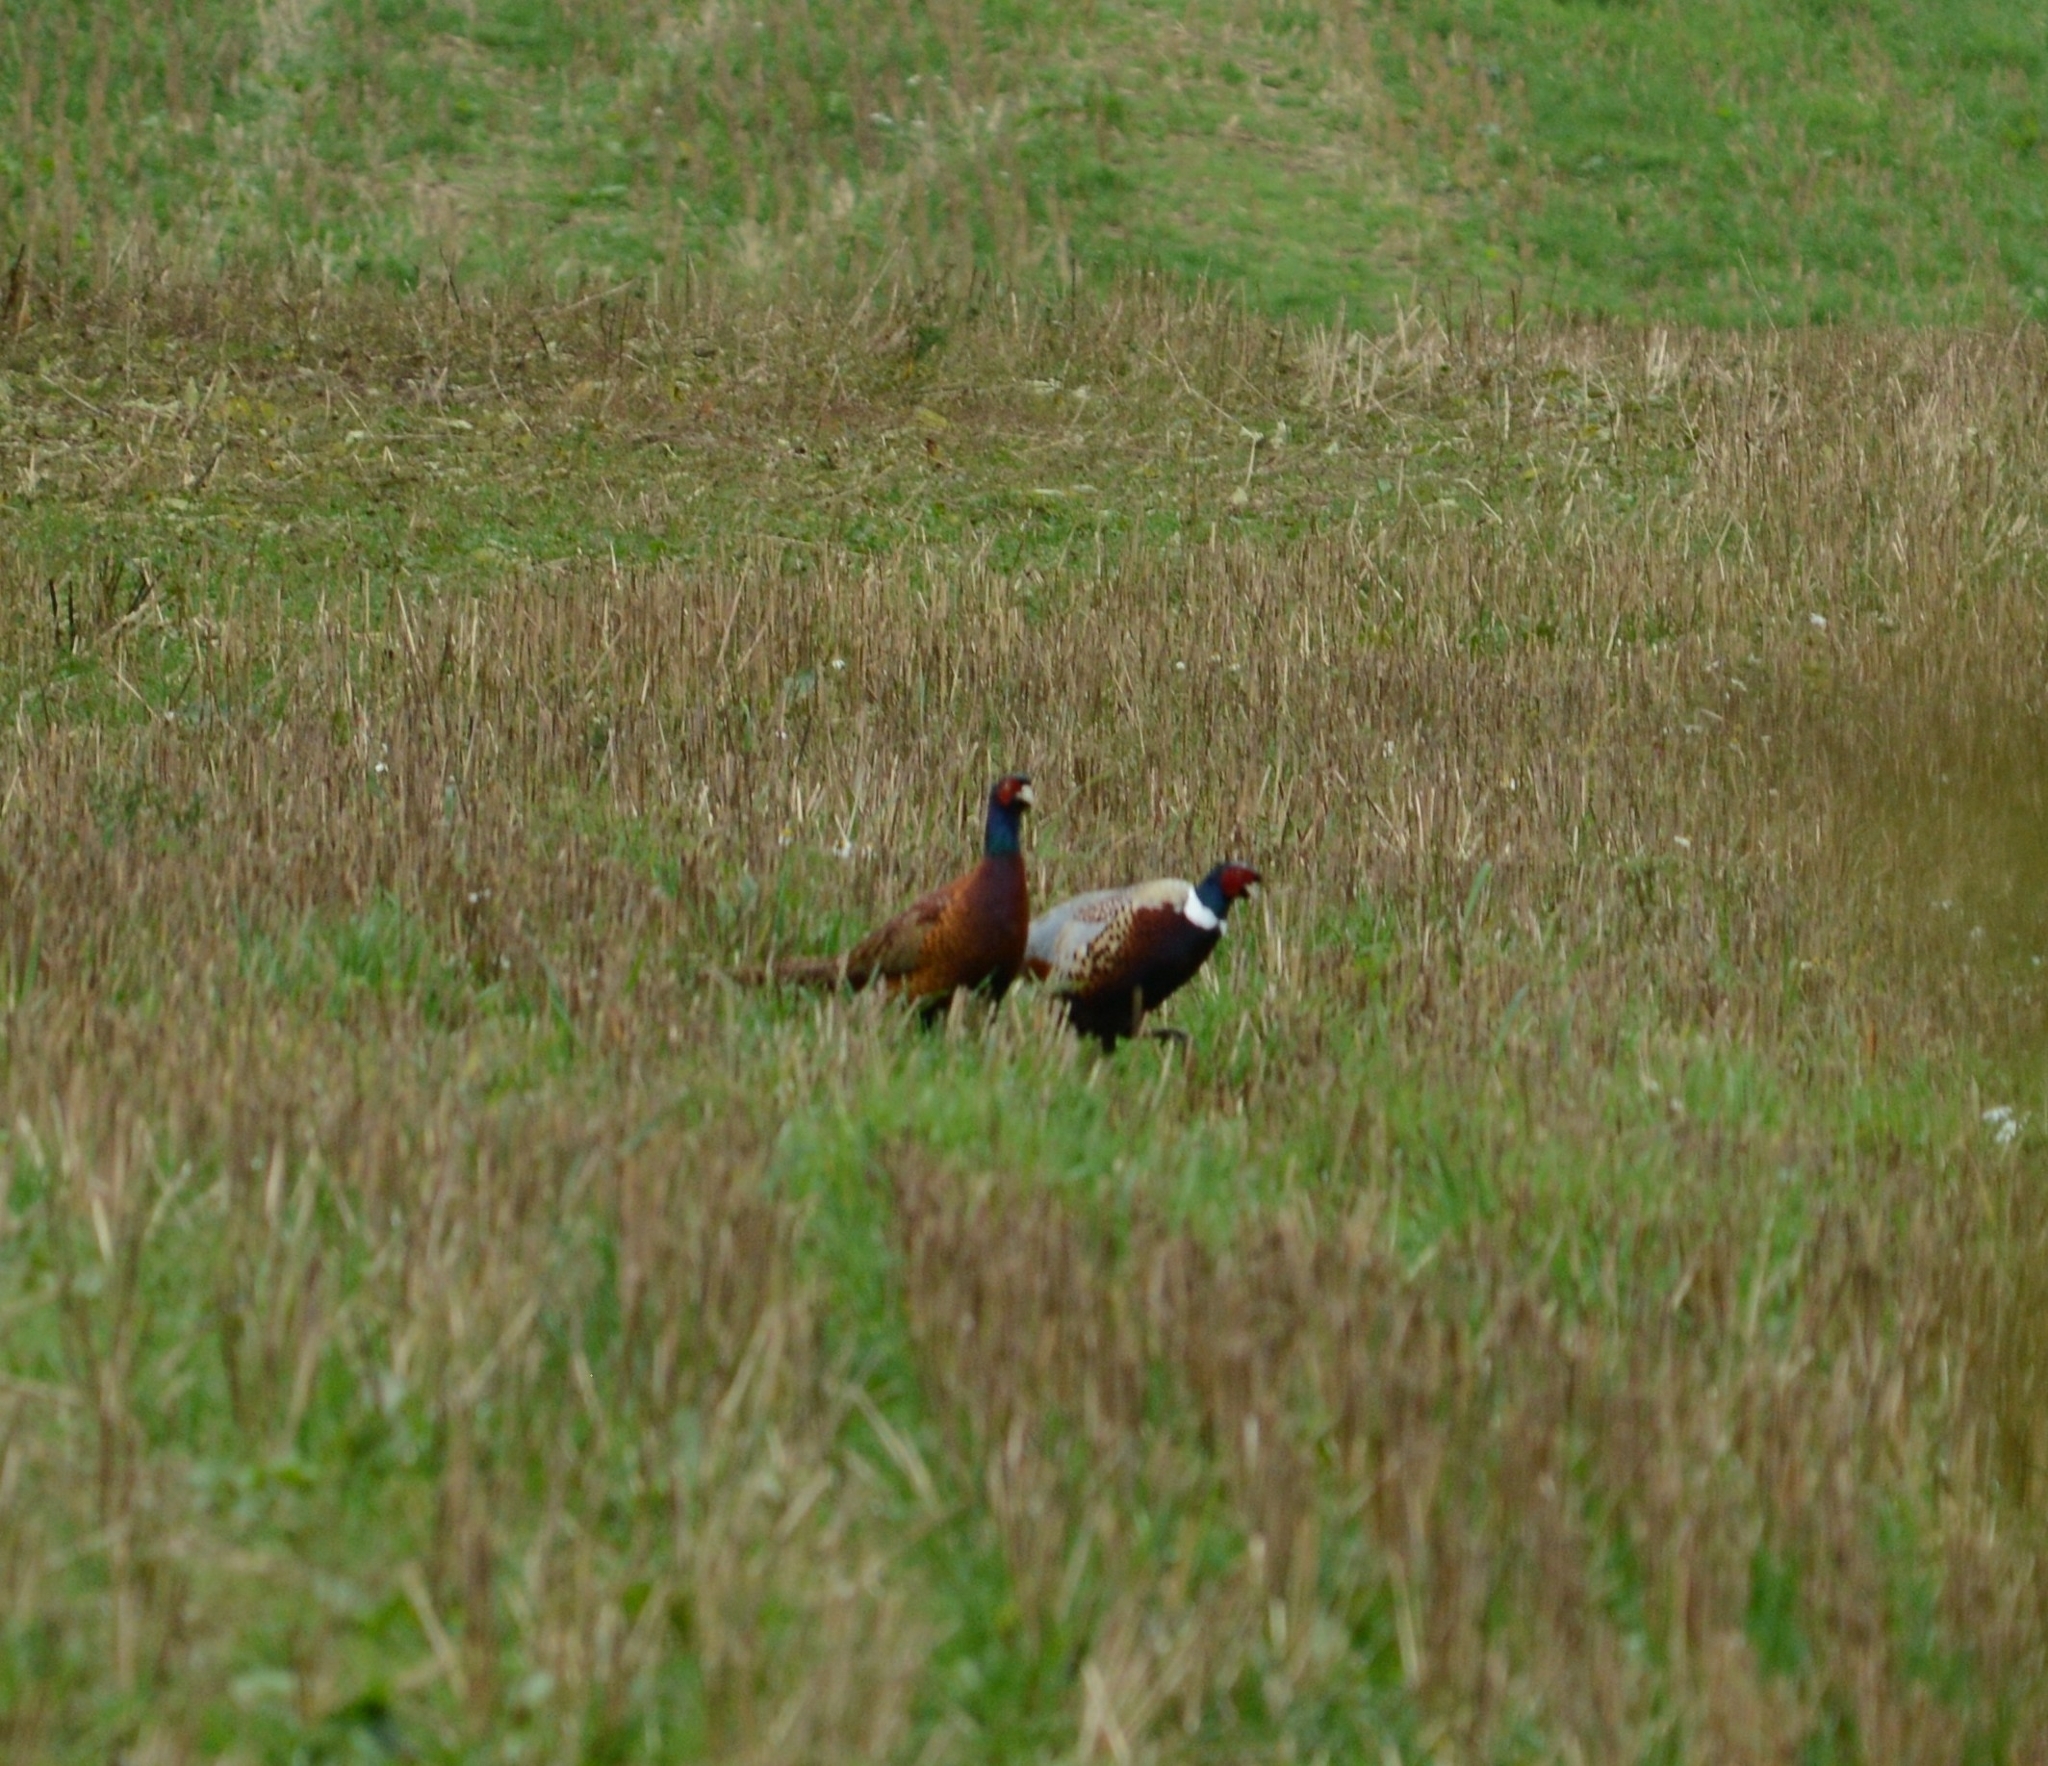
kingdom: Animalia
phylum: Chordata
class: Aves
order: Galliformes
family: Phasianidae
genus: Phasianus
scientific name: Phasianus colchicus
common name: Common pheasant
